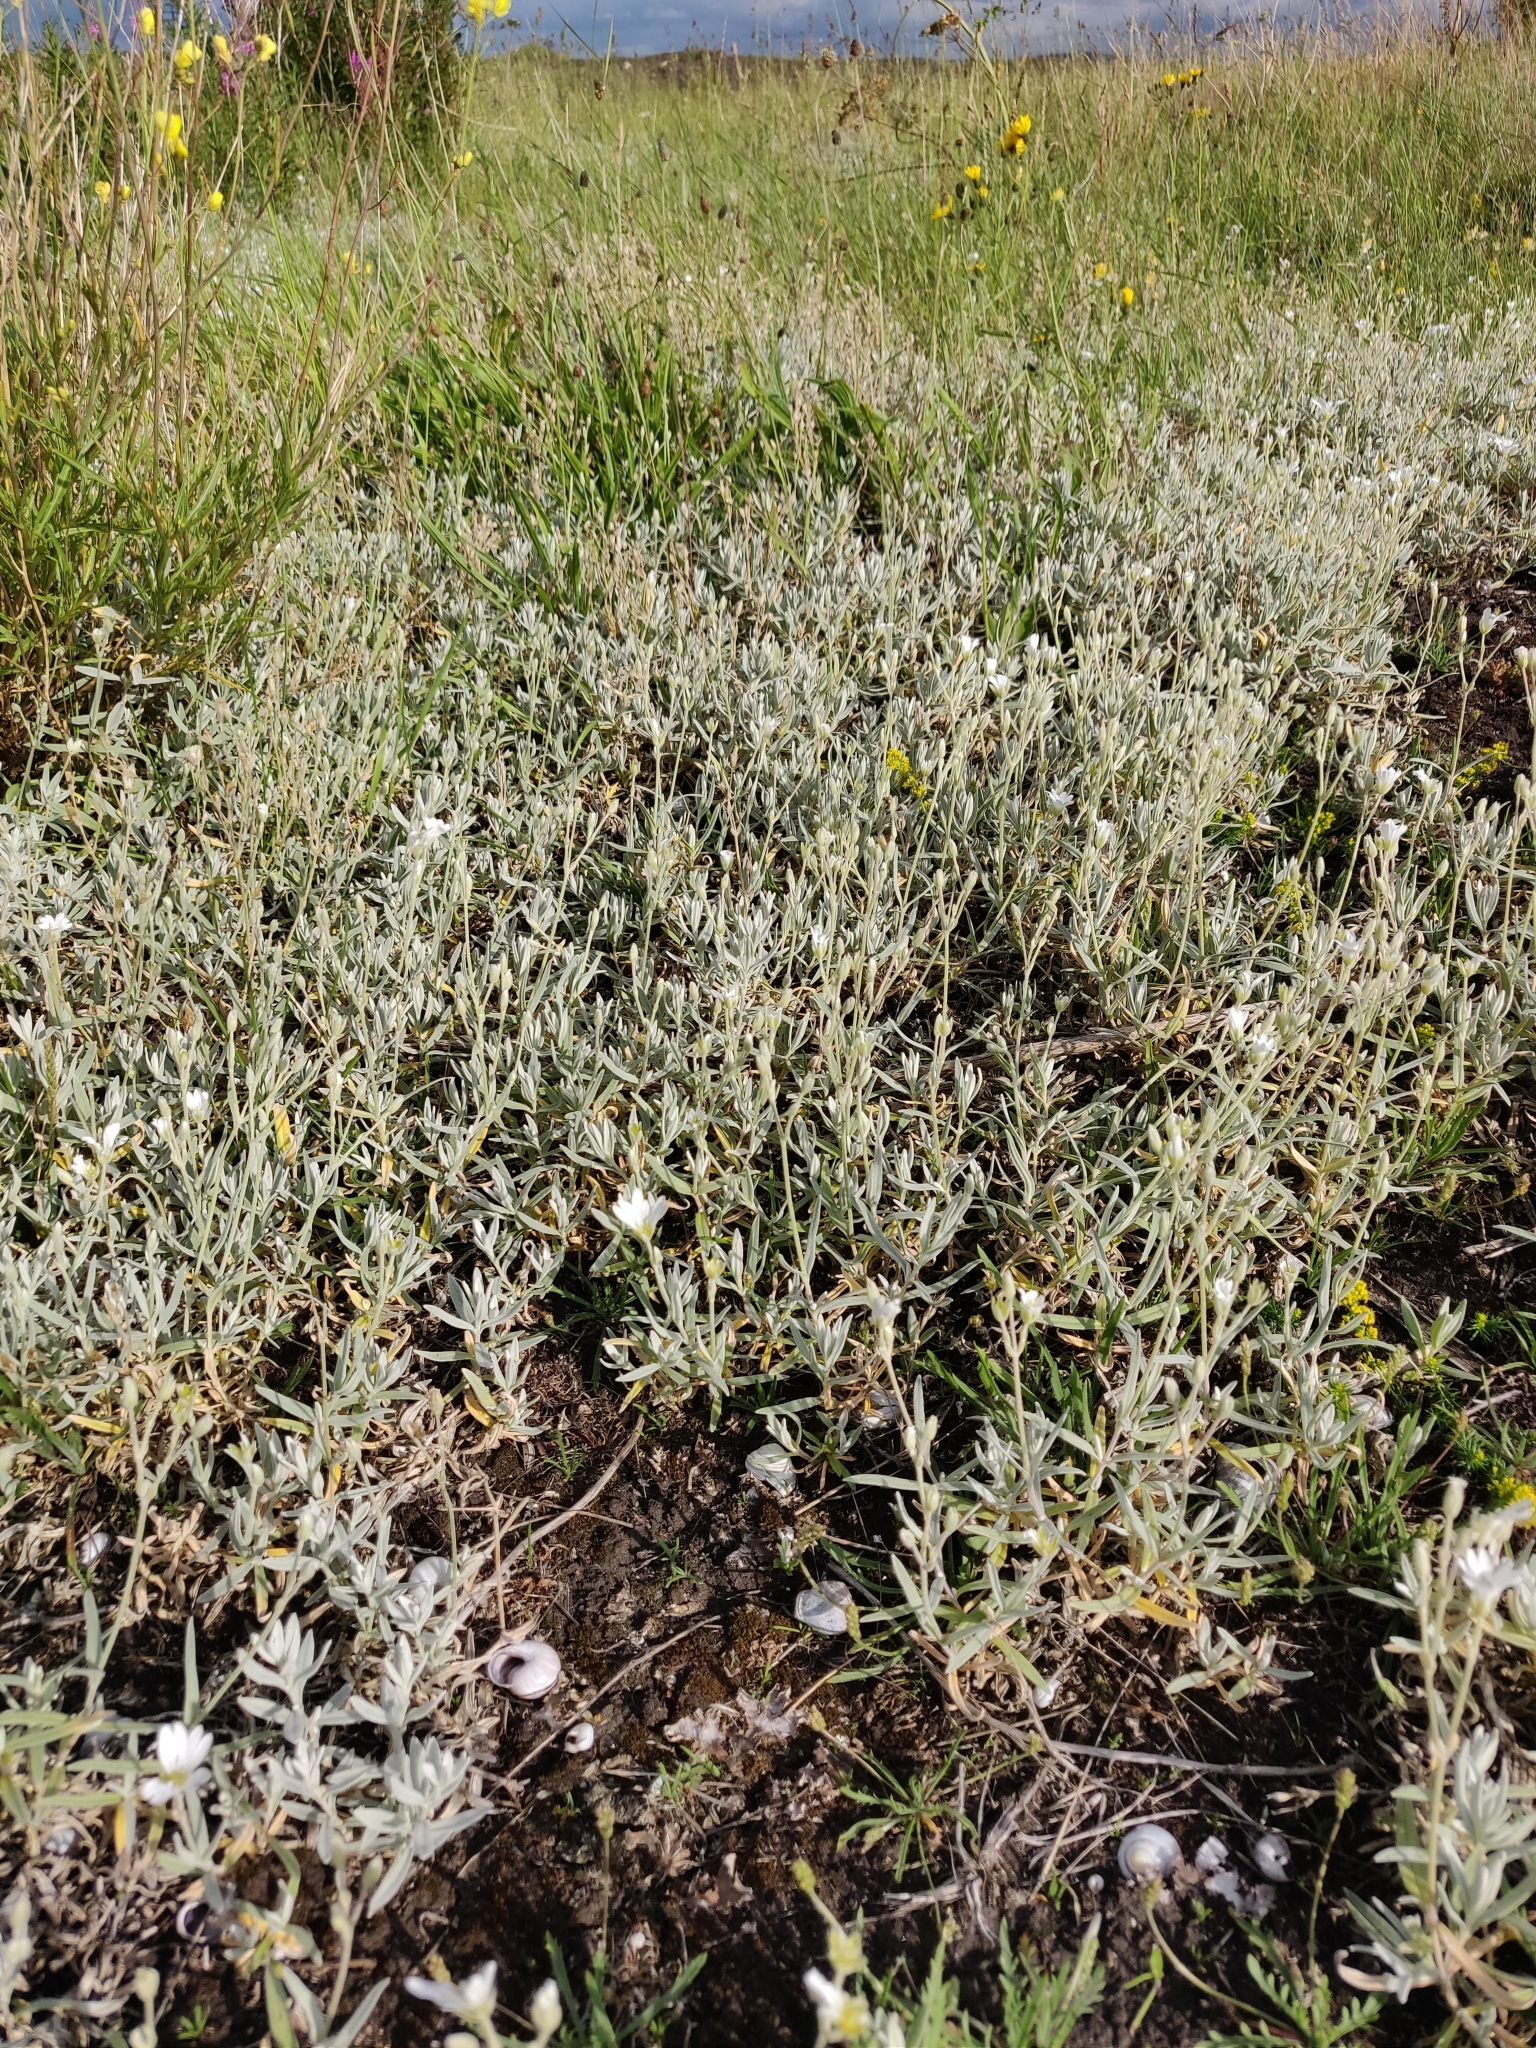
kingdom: Plantae
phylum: Tracheophyta
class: Magnoliopsida
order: Caryophyllales
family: Caryophyllaceae
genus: Cerastium
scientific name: Cerastium tomentosum
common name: Snow-in-summer
